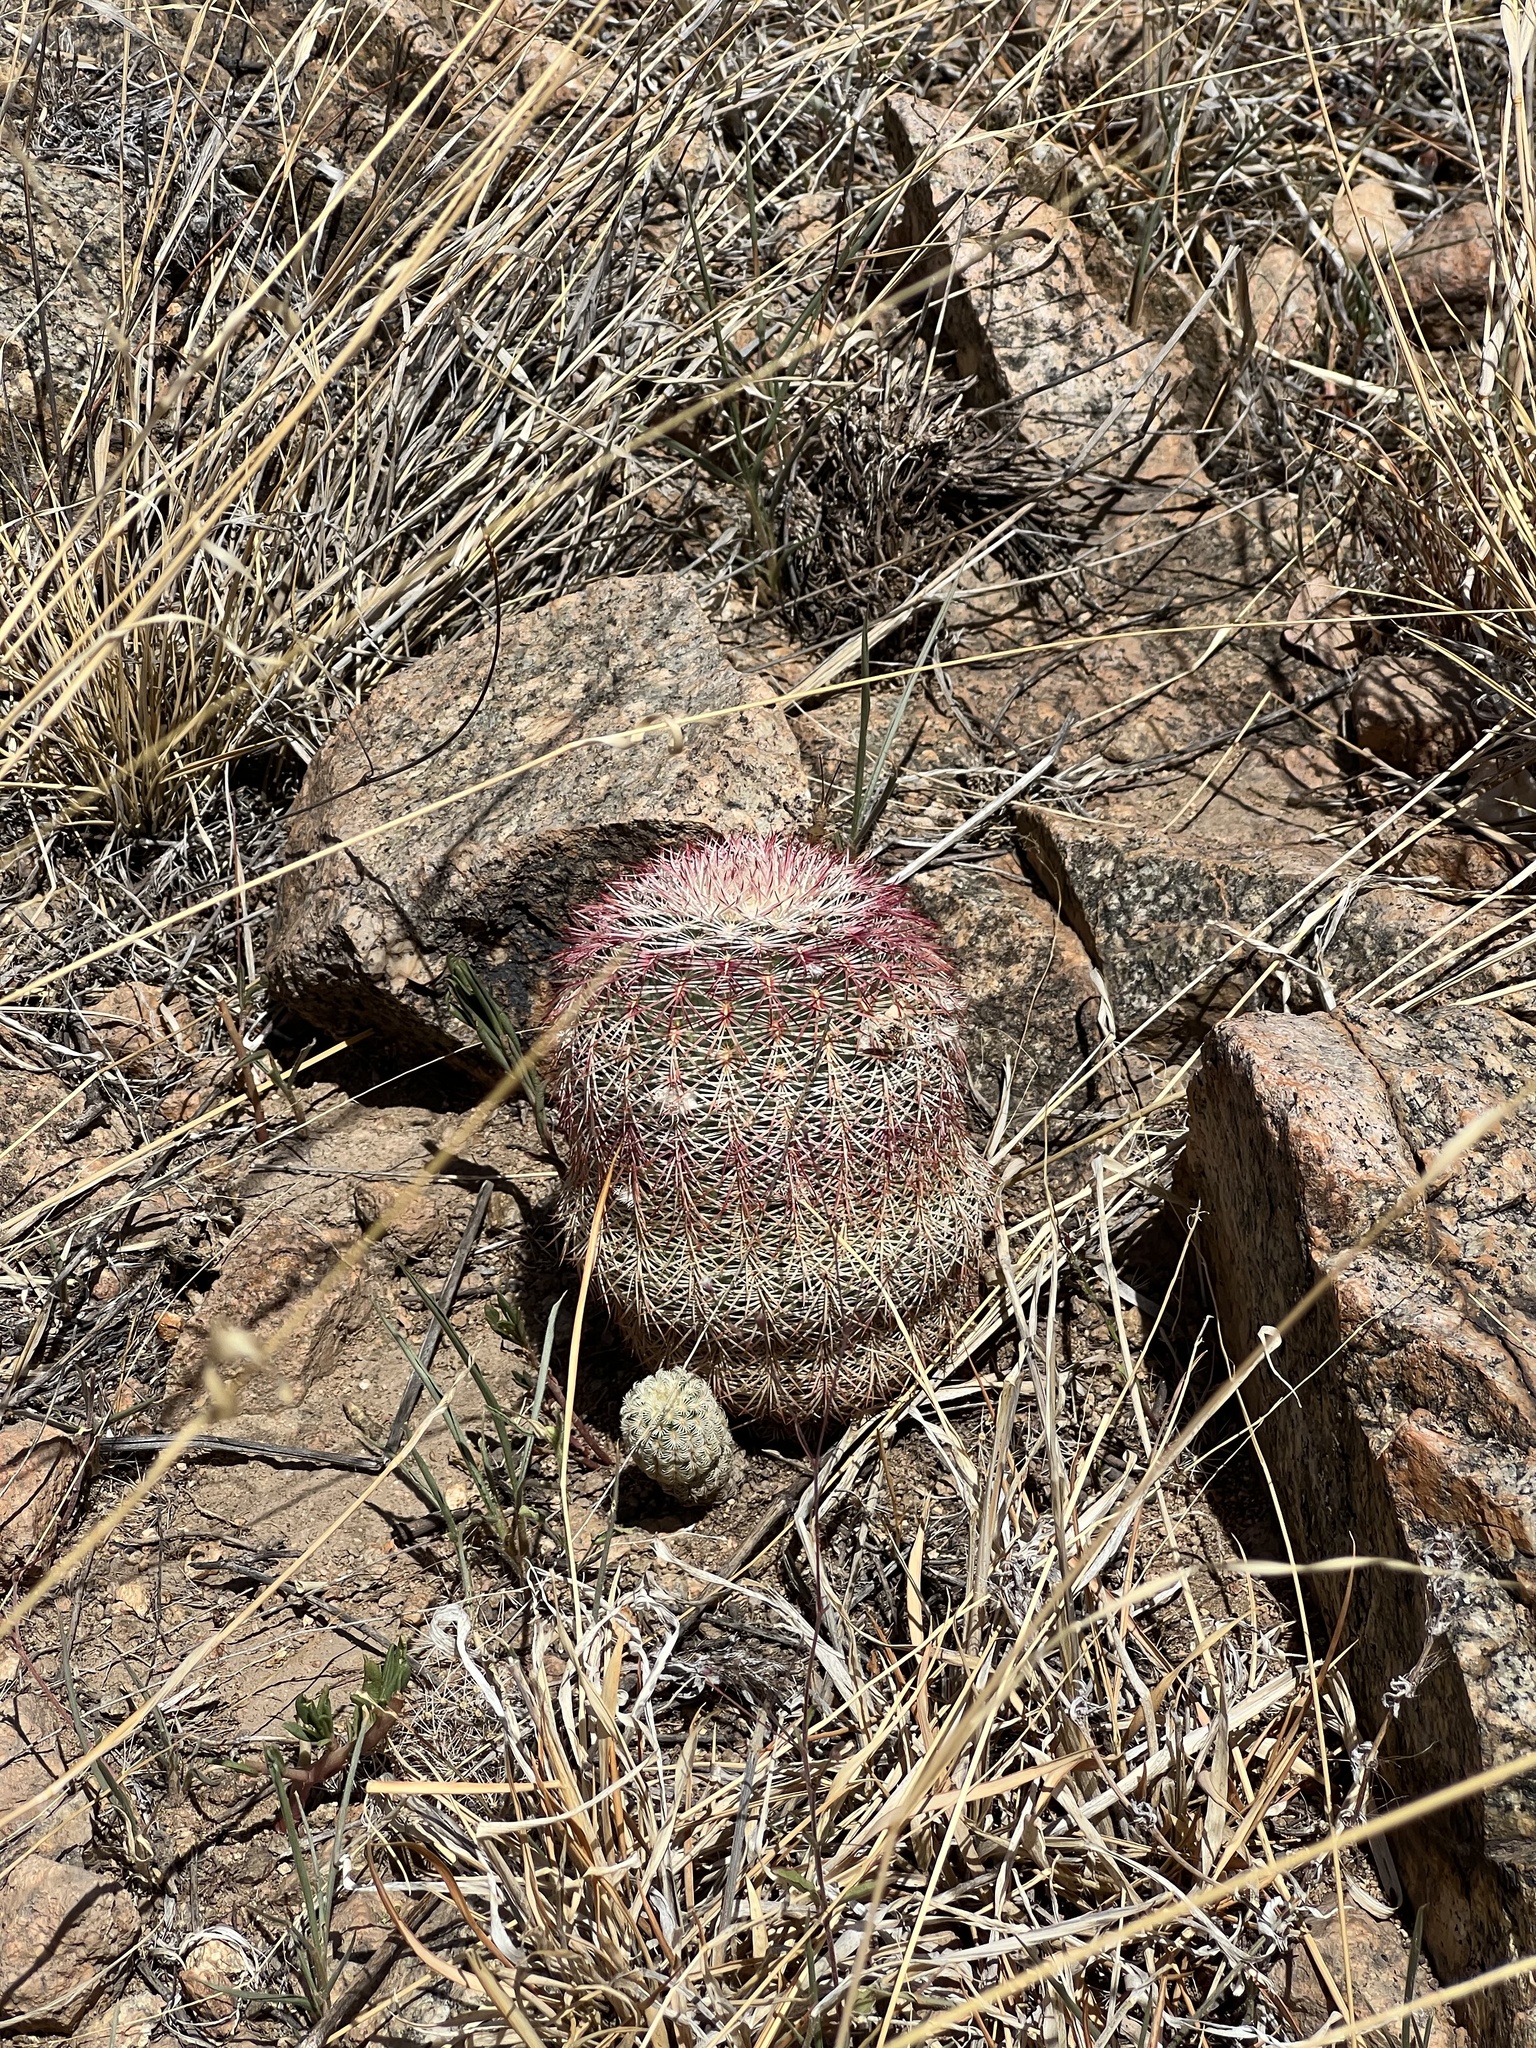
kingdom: Plantae
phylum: Tracheophyta
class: Magnoliopsida
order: Caryophyllales
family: Cactaceae
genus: Echinocereus
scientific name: Echinocereus rigidissimus
